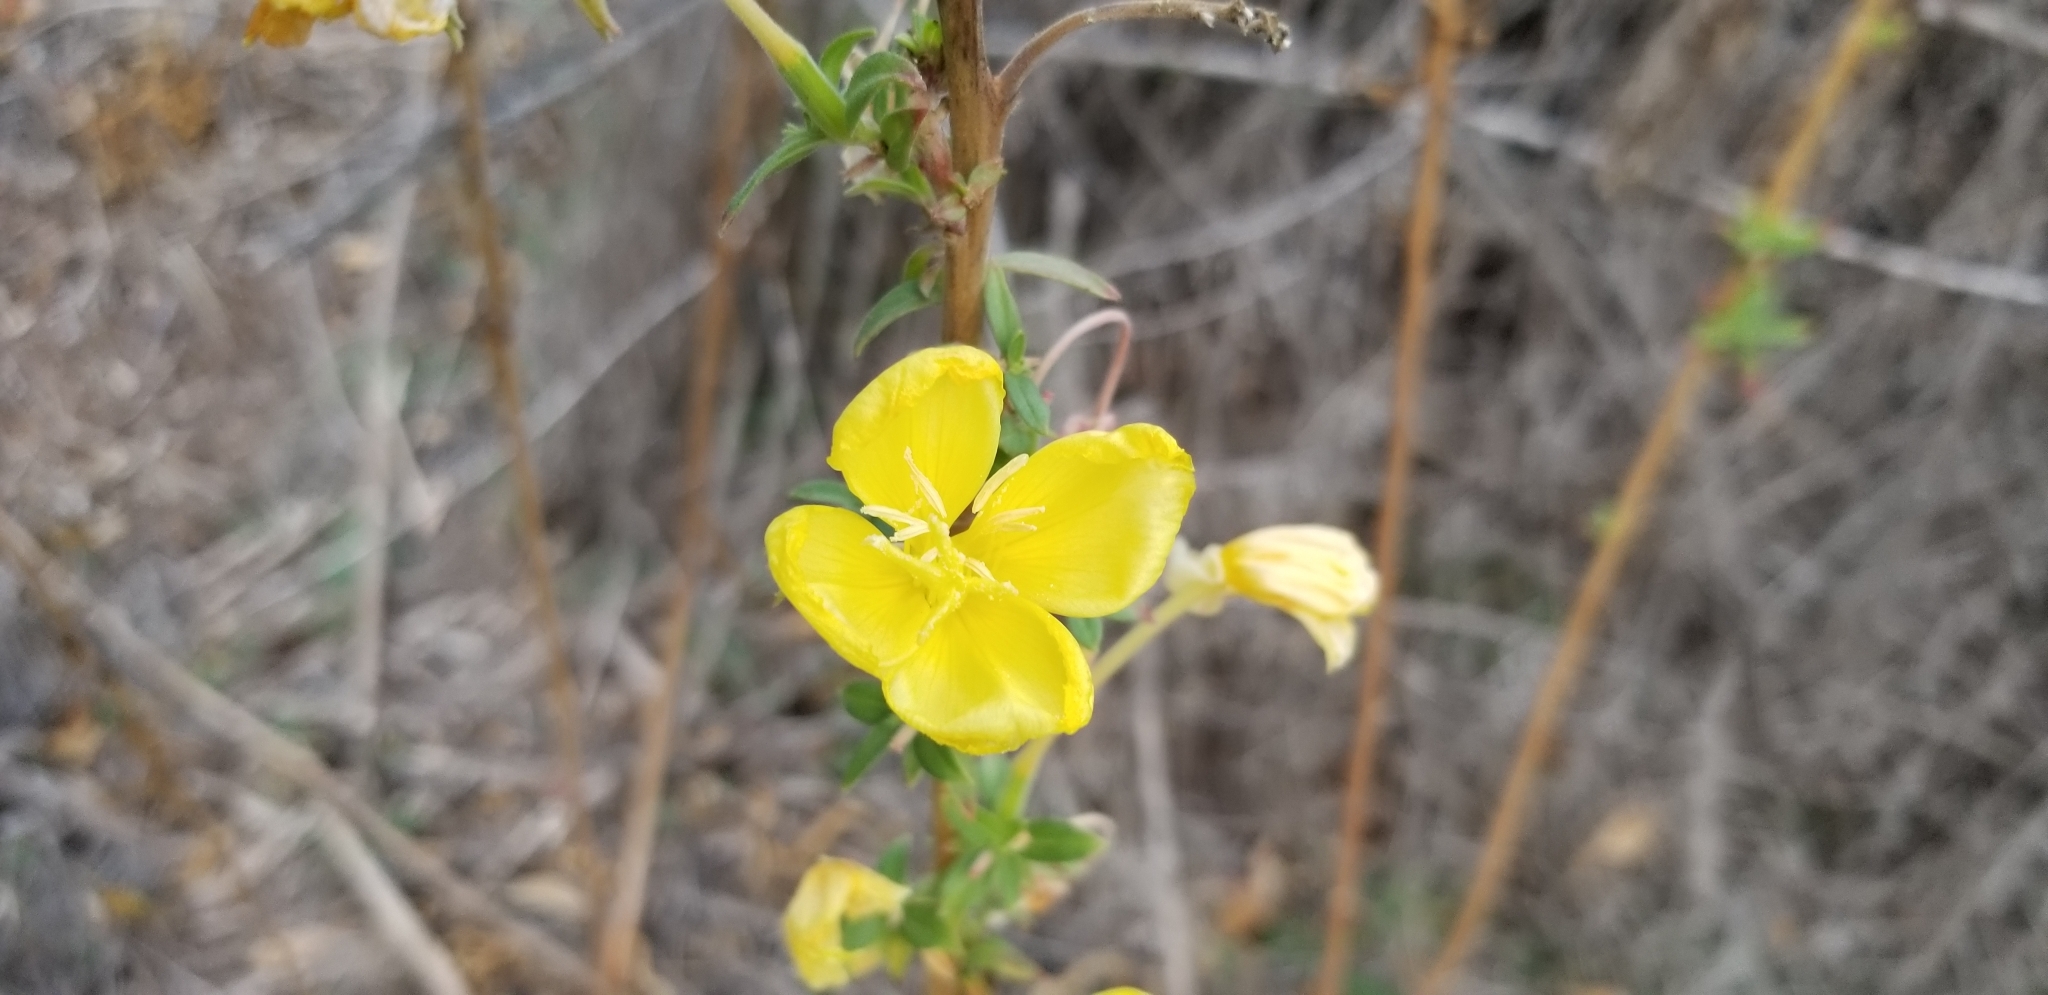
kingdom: Plantae
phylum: Tracheophyta
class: Magnoliopsida
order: Myrtales
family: Onagraceae
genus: Oenothera
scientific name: Oenothera elata
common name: Hooker's evening-primrose
